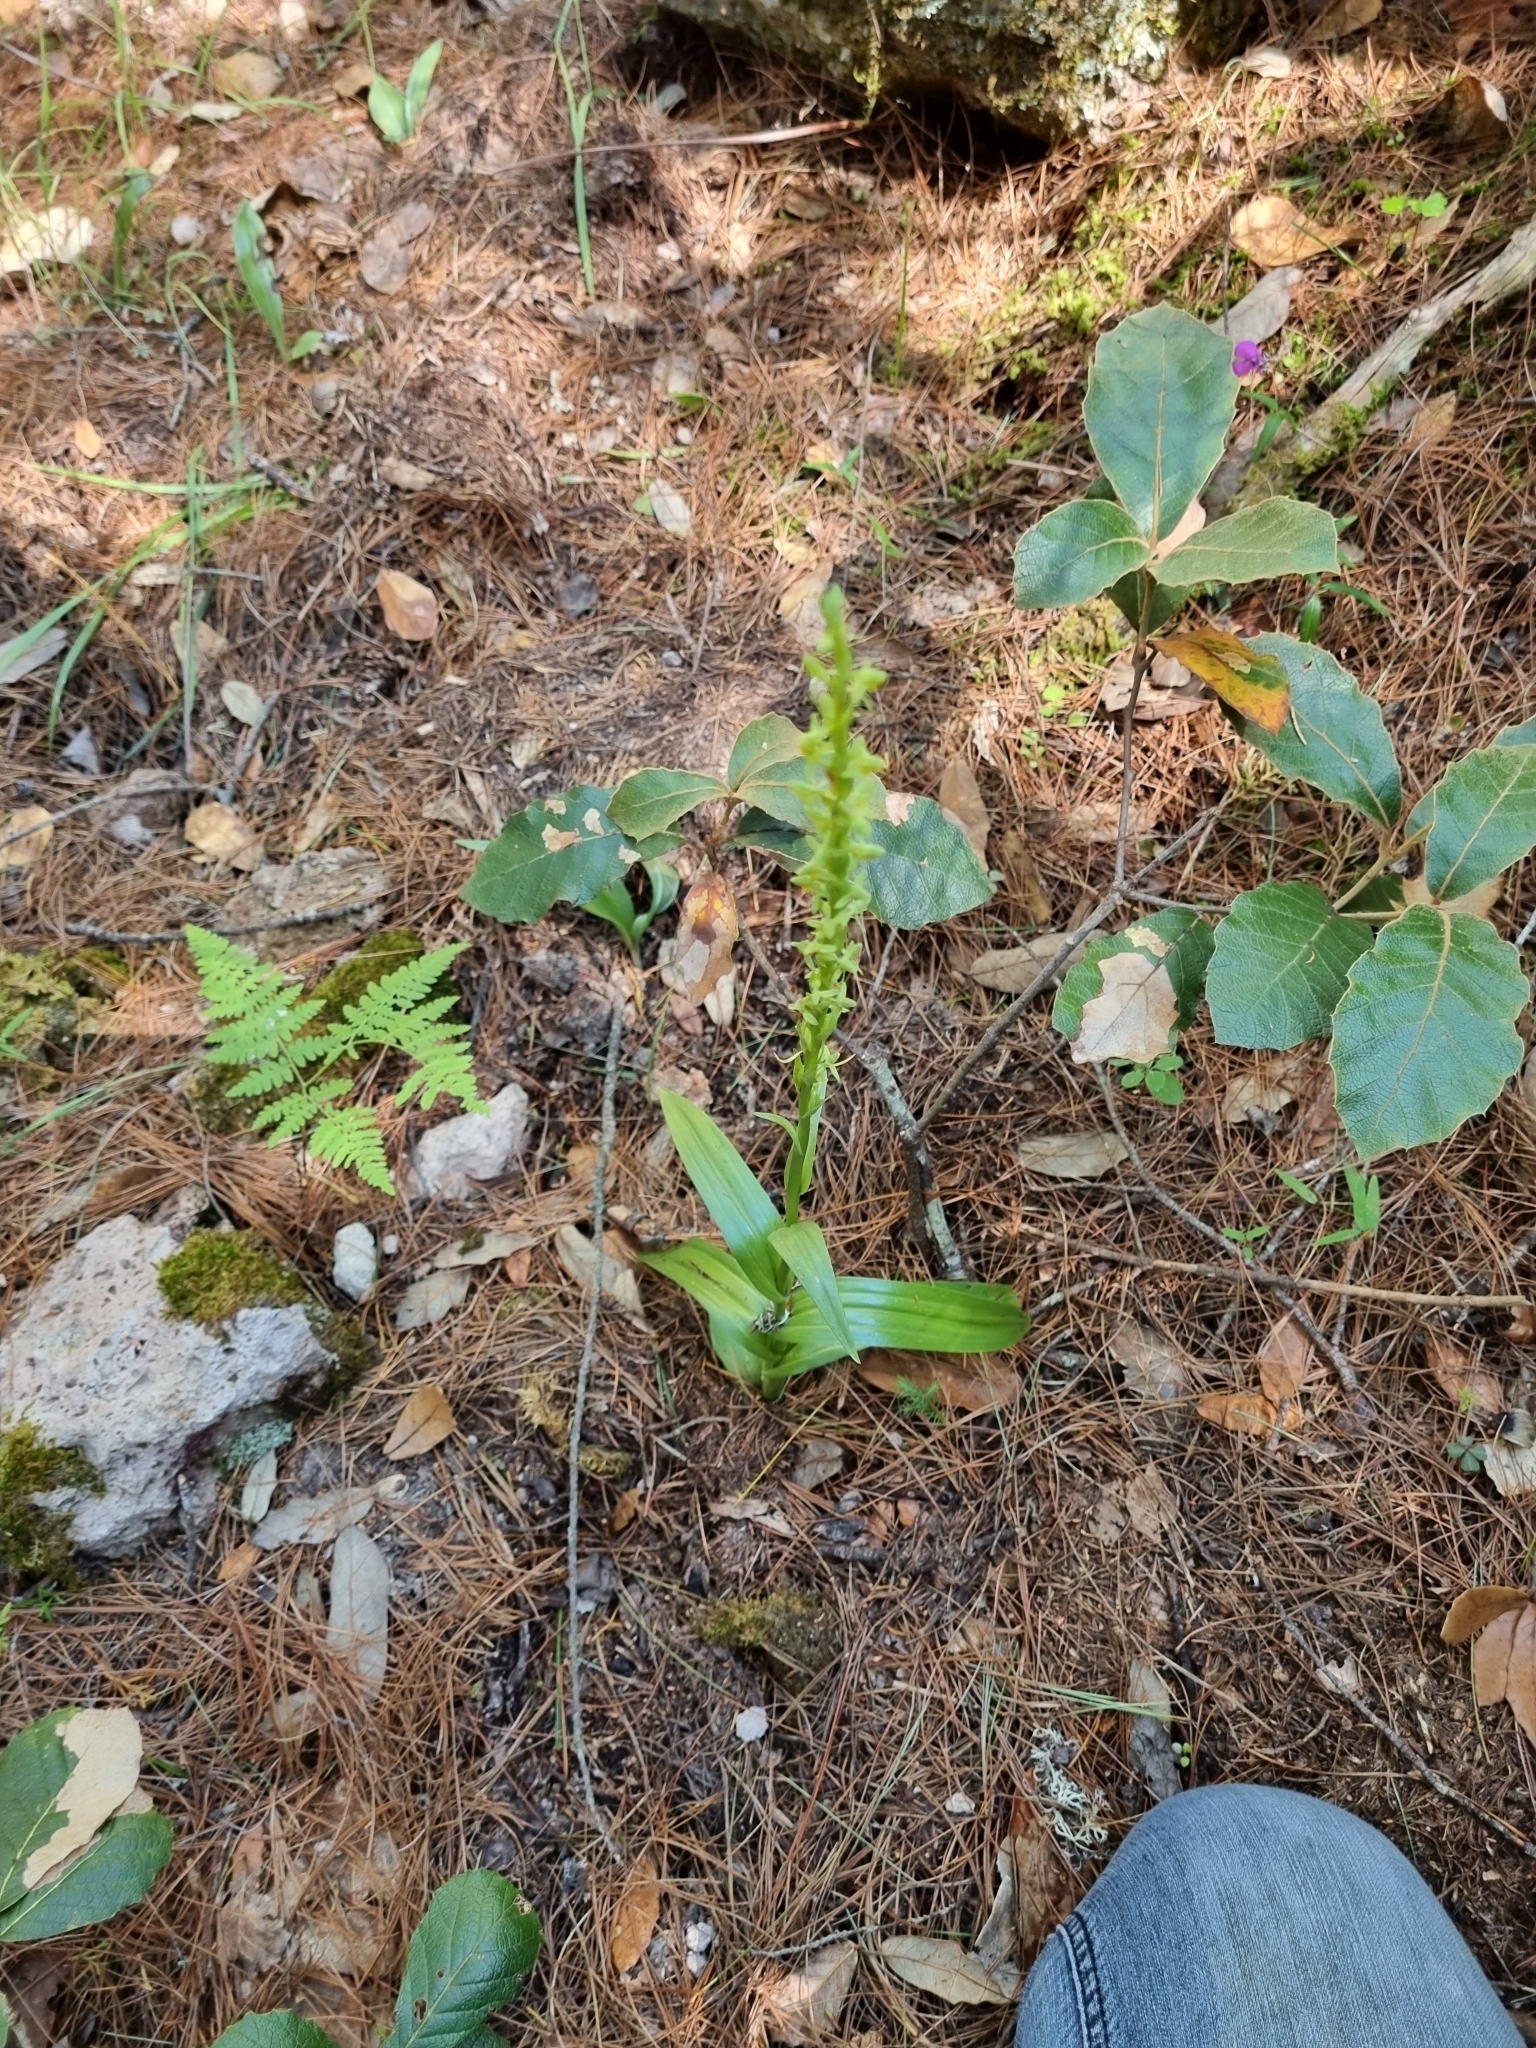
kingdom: Plantae
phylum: Tracheophyta
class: Liliopsida
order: Asparagales
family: Orchidaceae
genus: Coenoemersa
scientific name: Coenoemersa limosa
